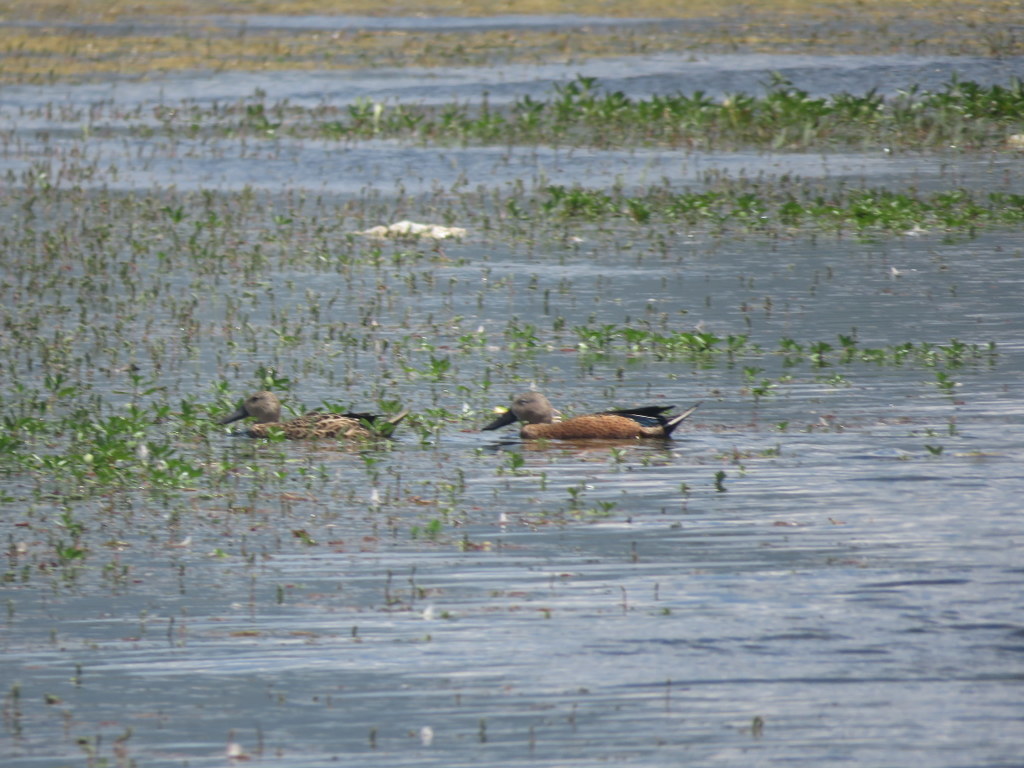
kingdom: Animalia
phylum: Chordata
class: Aves
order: Anseriformes
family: Anatidae
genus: Spatula
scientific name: Spatula platalea
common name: Red shoveler
